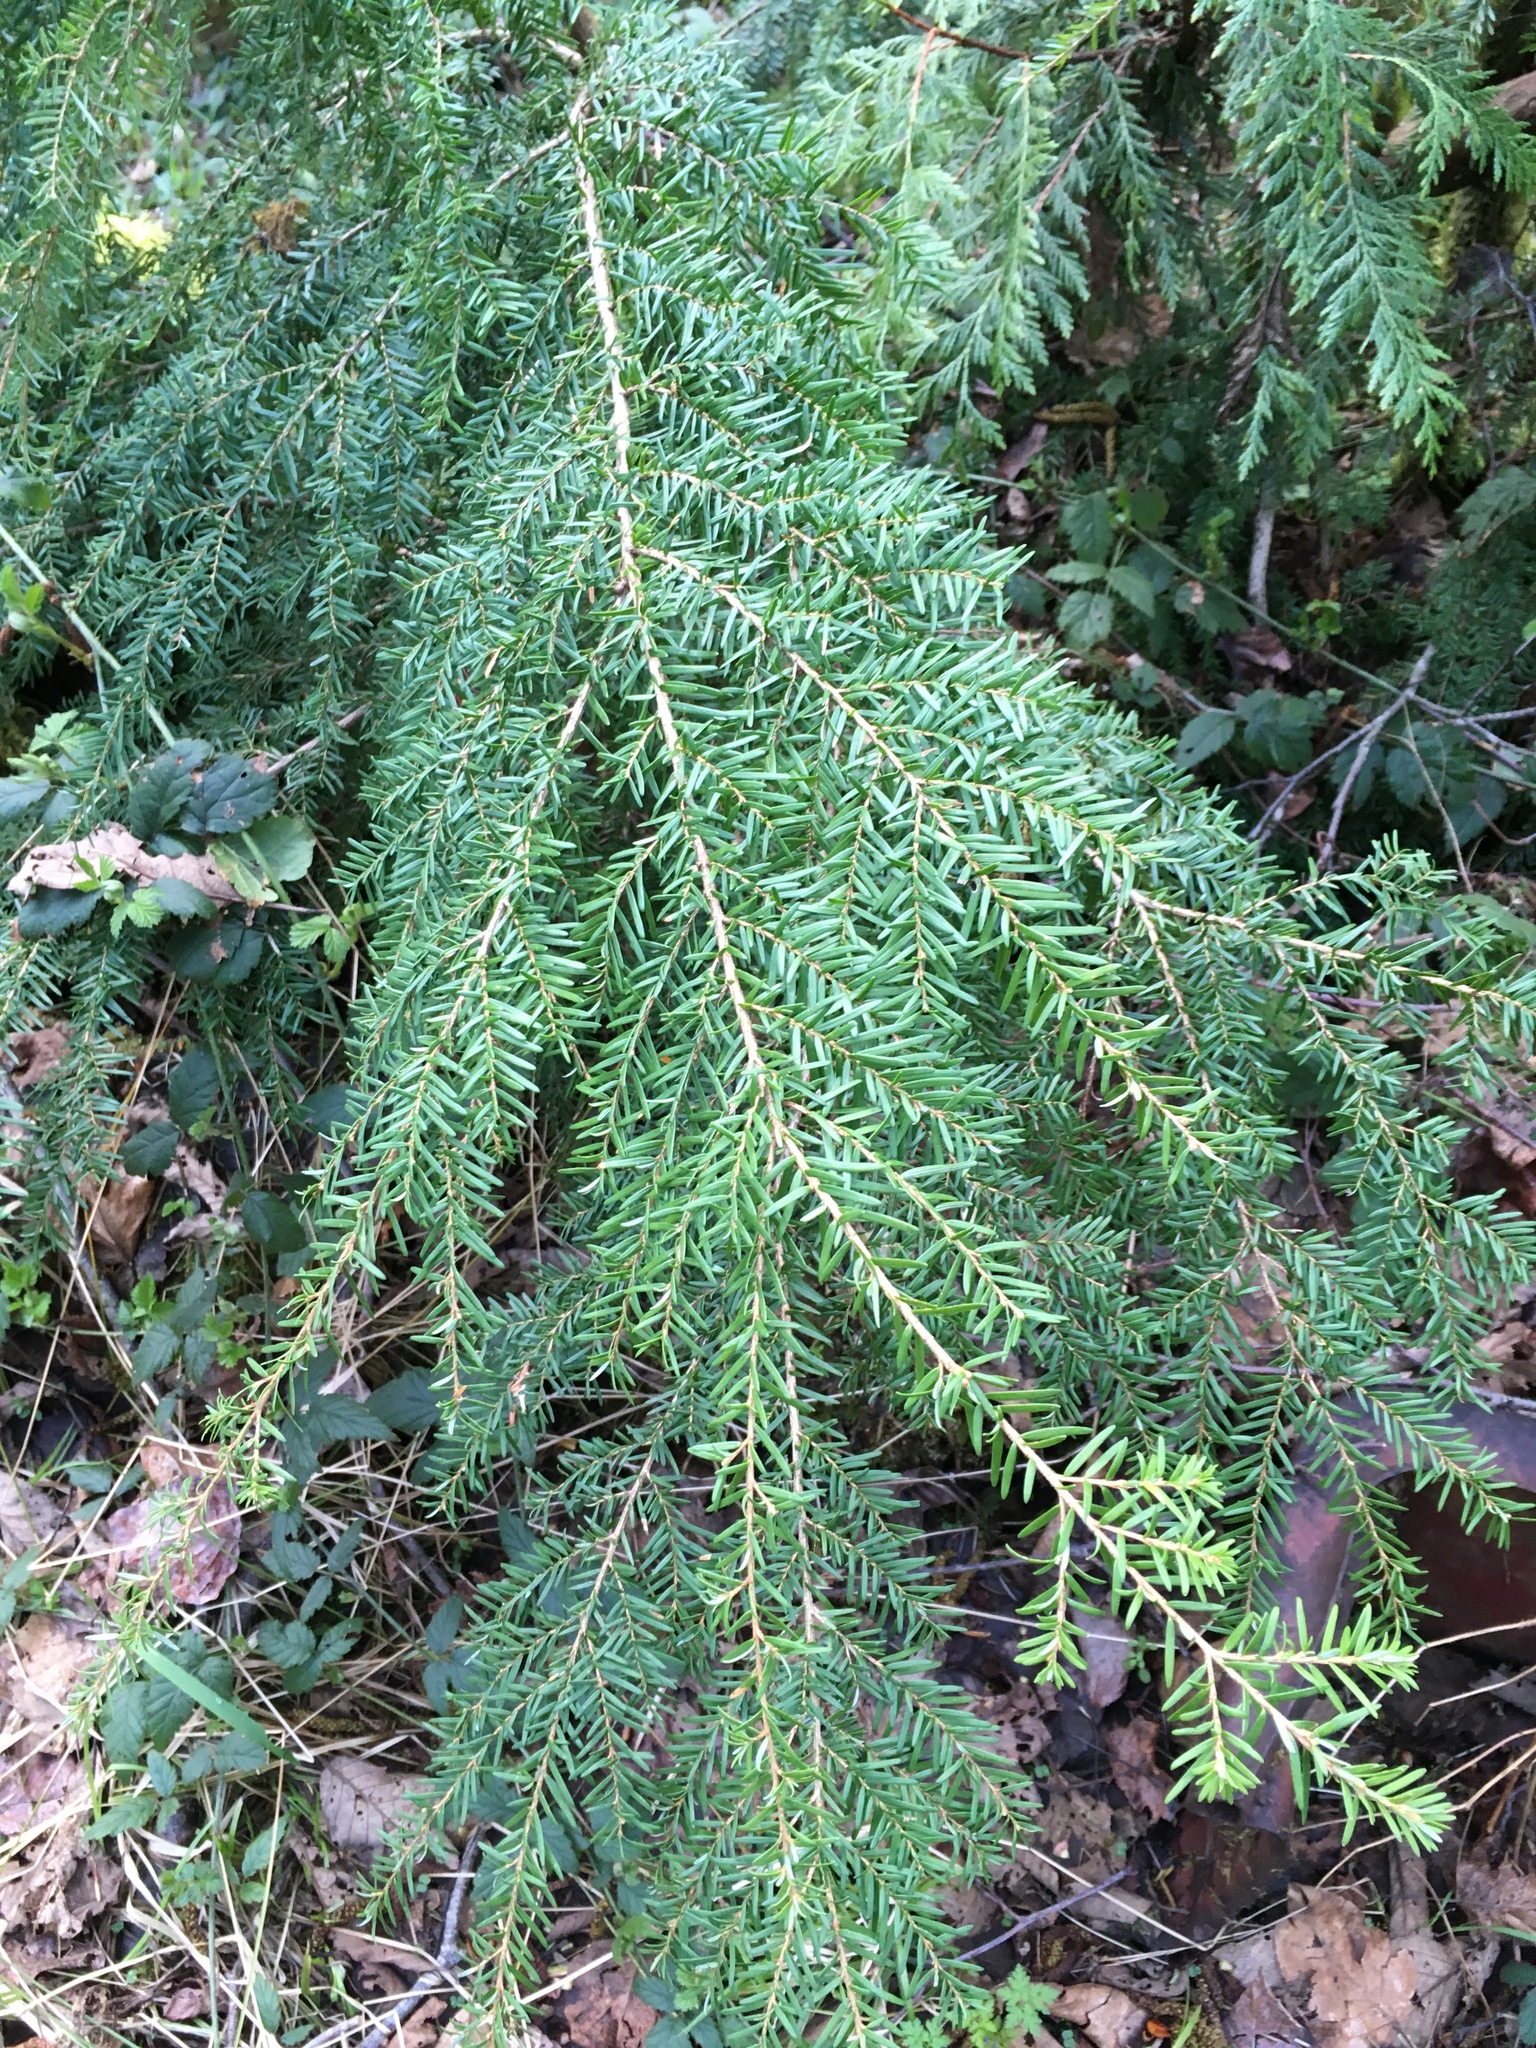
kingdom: Plantae
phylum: Tracheophyta
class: Pinopsida
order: Pinales
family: Pinaceae
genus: Tsuga
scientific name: Tsuga heterophylla
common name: Western hemlock
